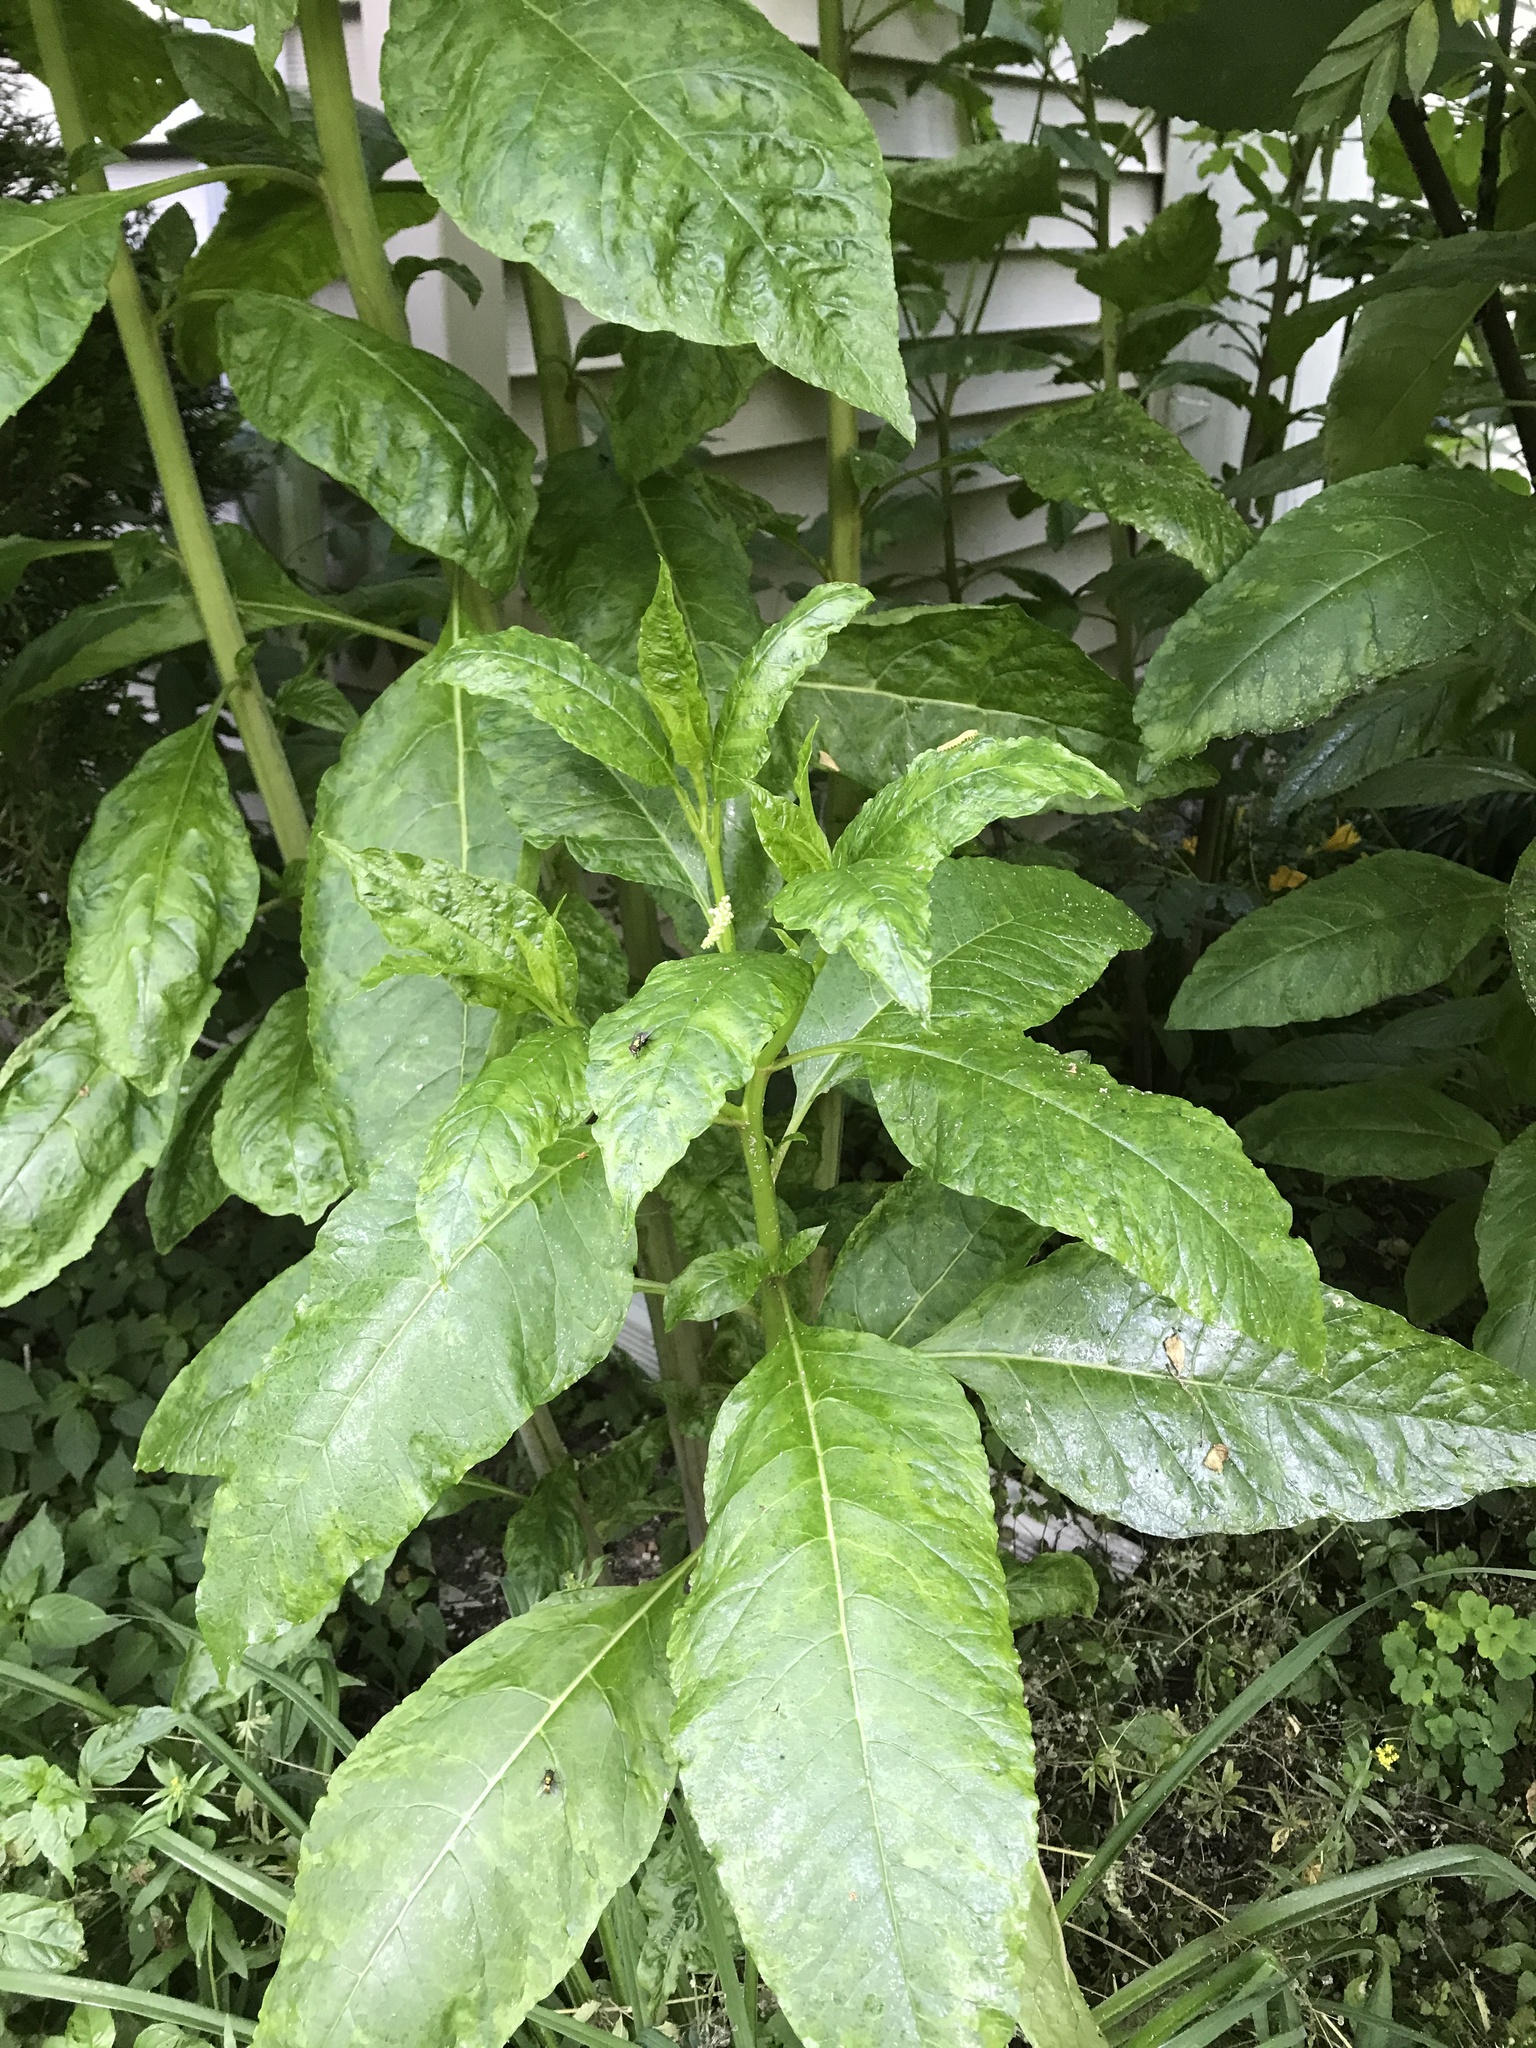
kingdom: Plantae
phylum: Tracheophyta
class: Magnoliopsida
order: Caryophyllales
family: Phytolaccaceae
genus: Phytolacca
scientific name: Phytolacca americana
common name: American pokeweed
